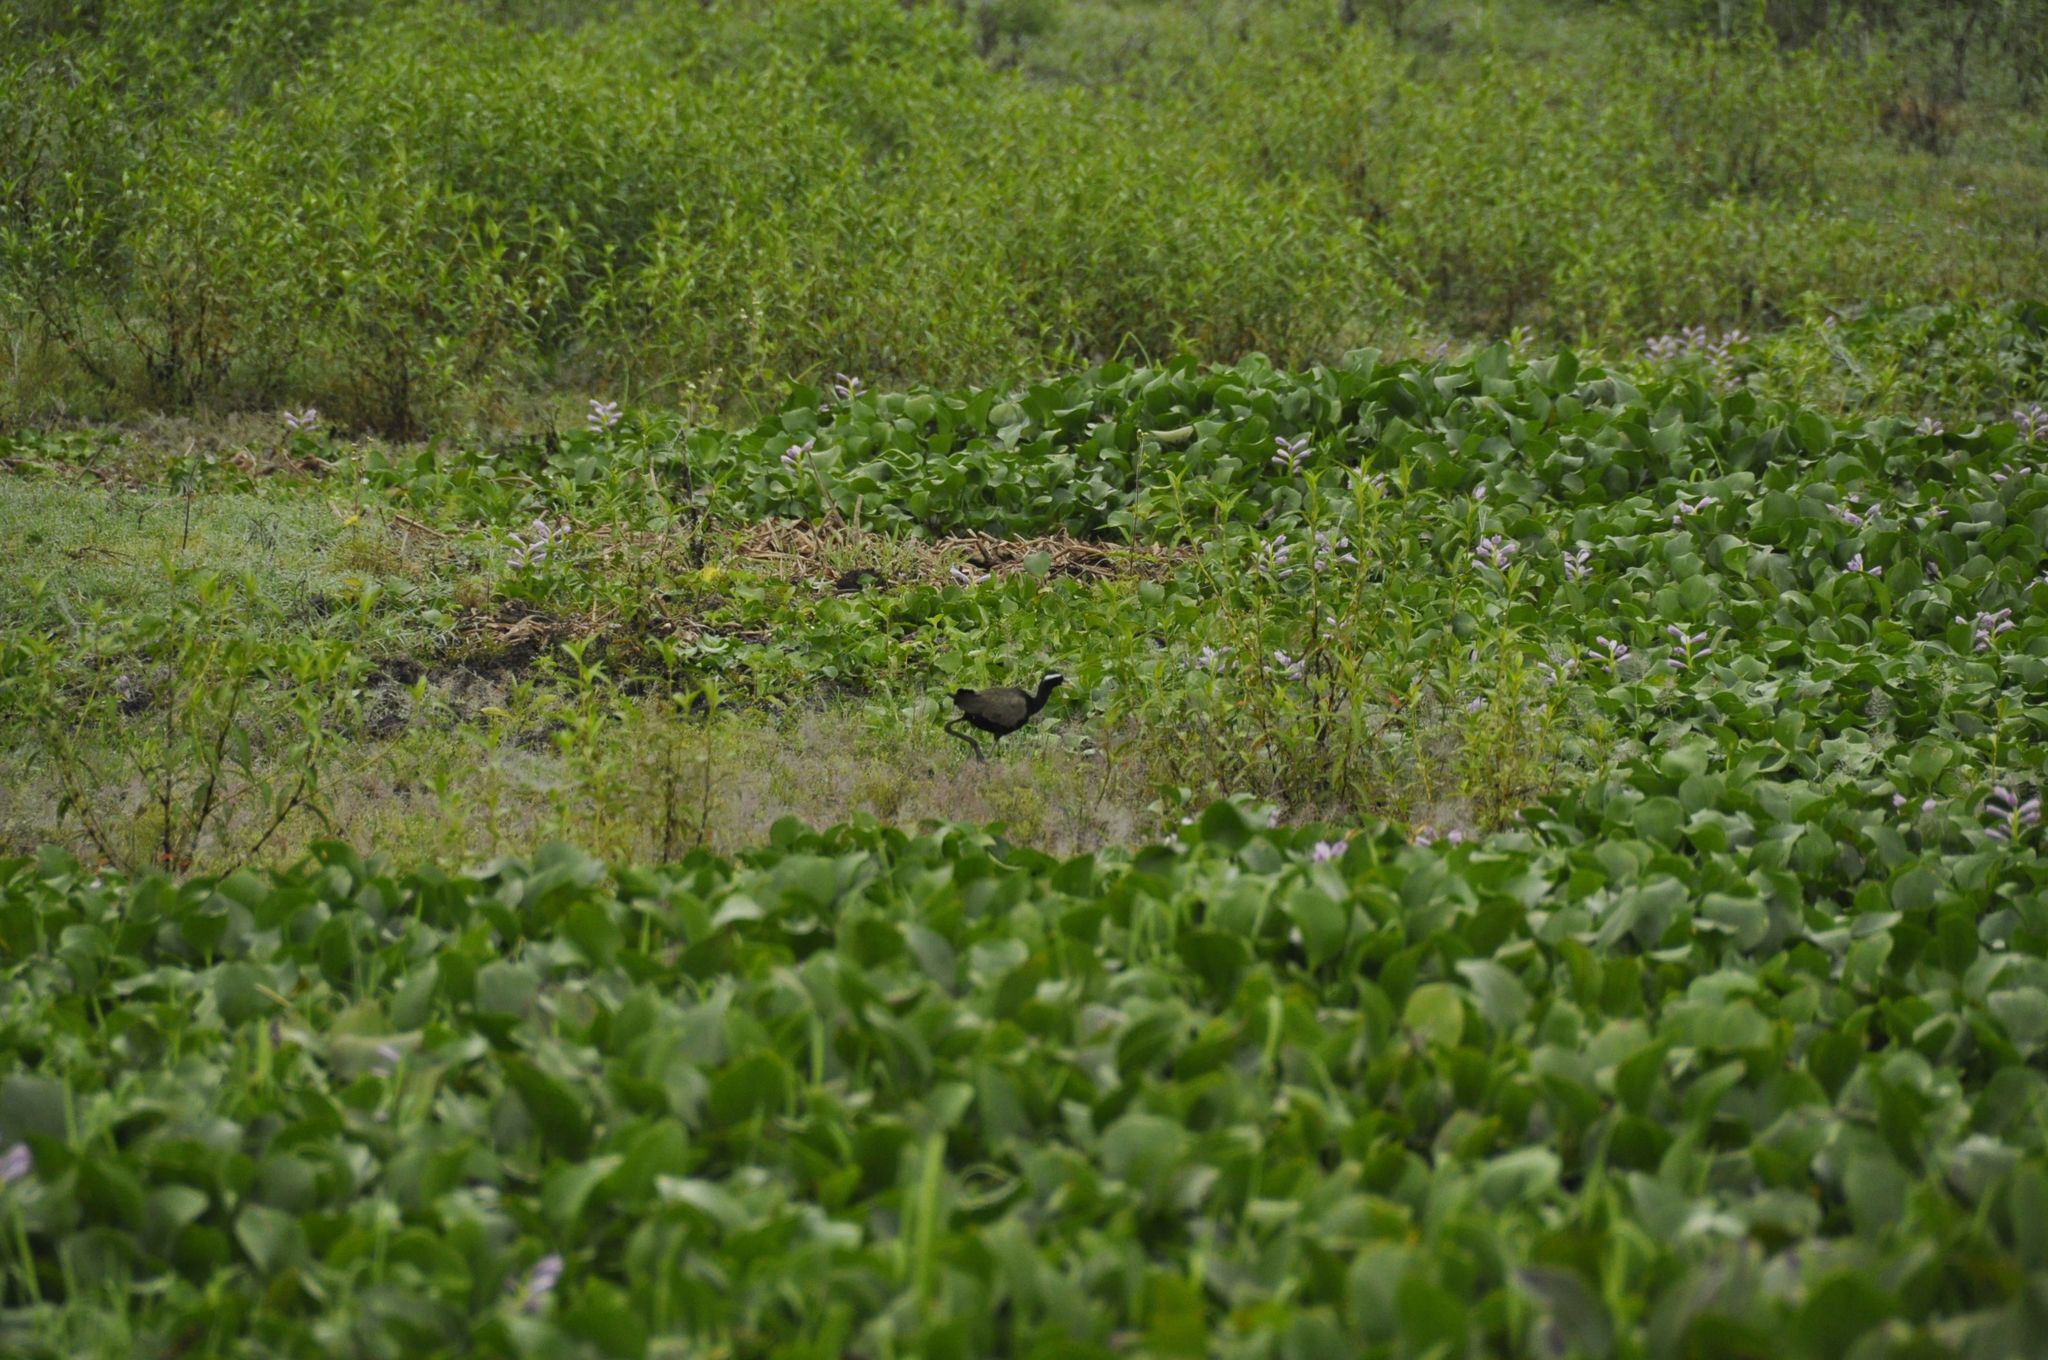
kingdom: Animalia
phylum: Chordata
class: Aves
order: Charadriiformes
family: Jacanidae
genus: Metopidius
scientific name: Metopidius indicus
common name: Bronze-winged jacana
